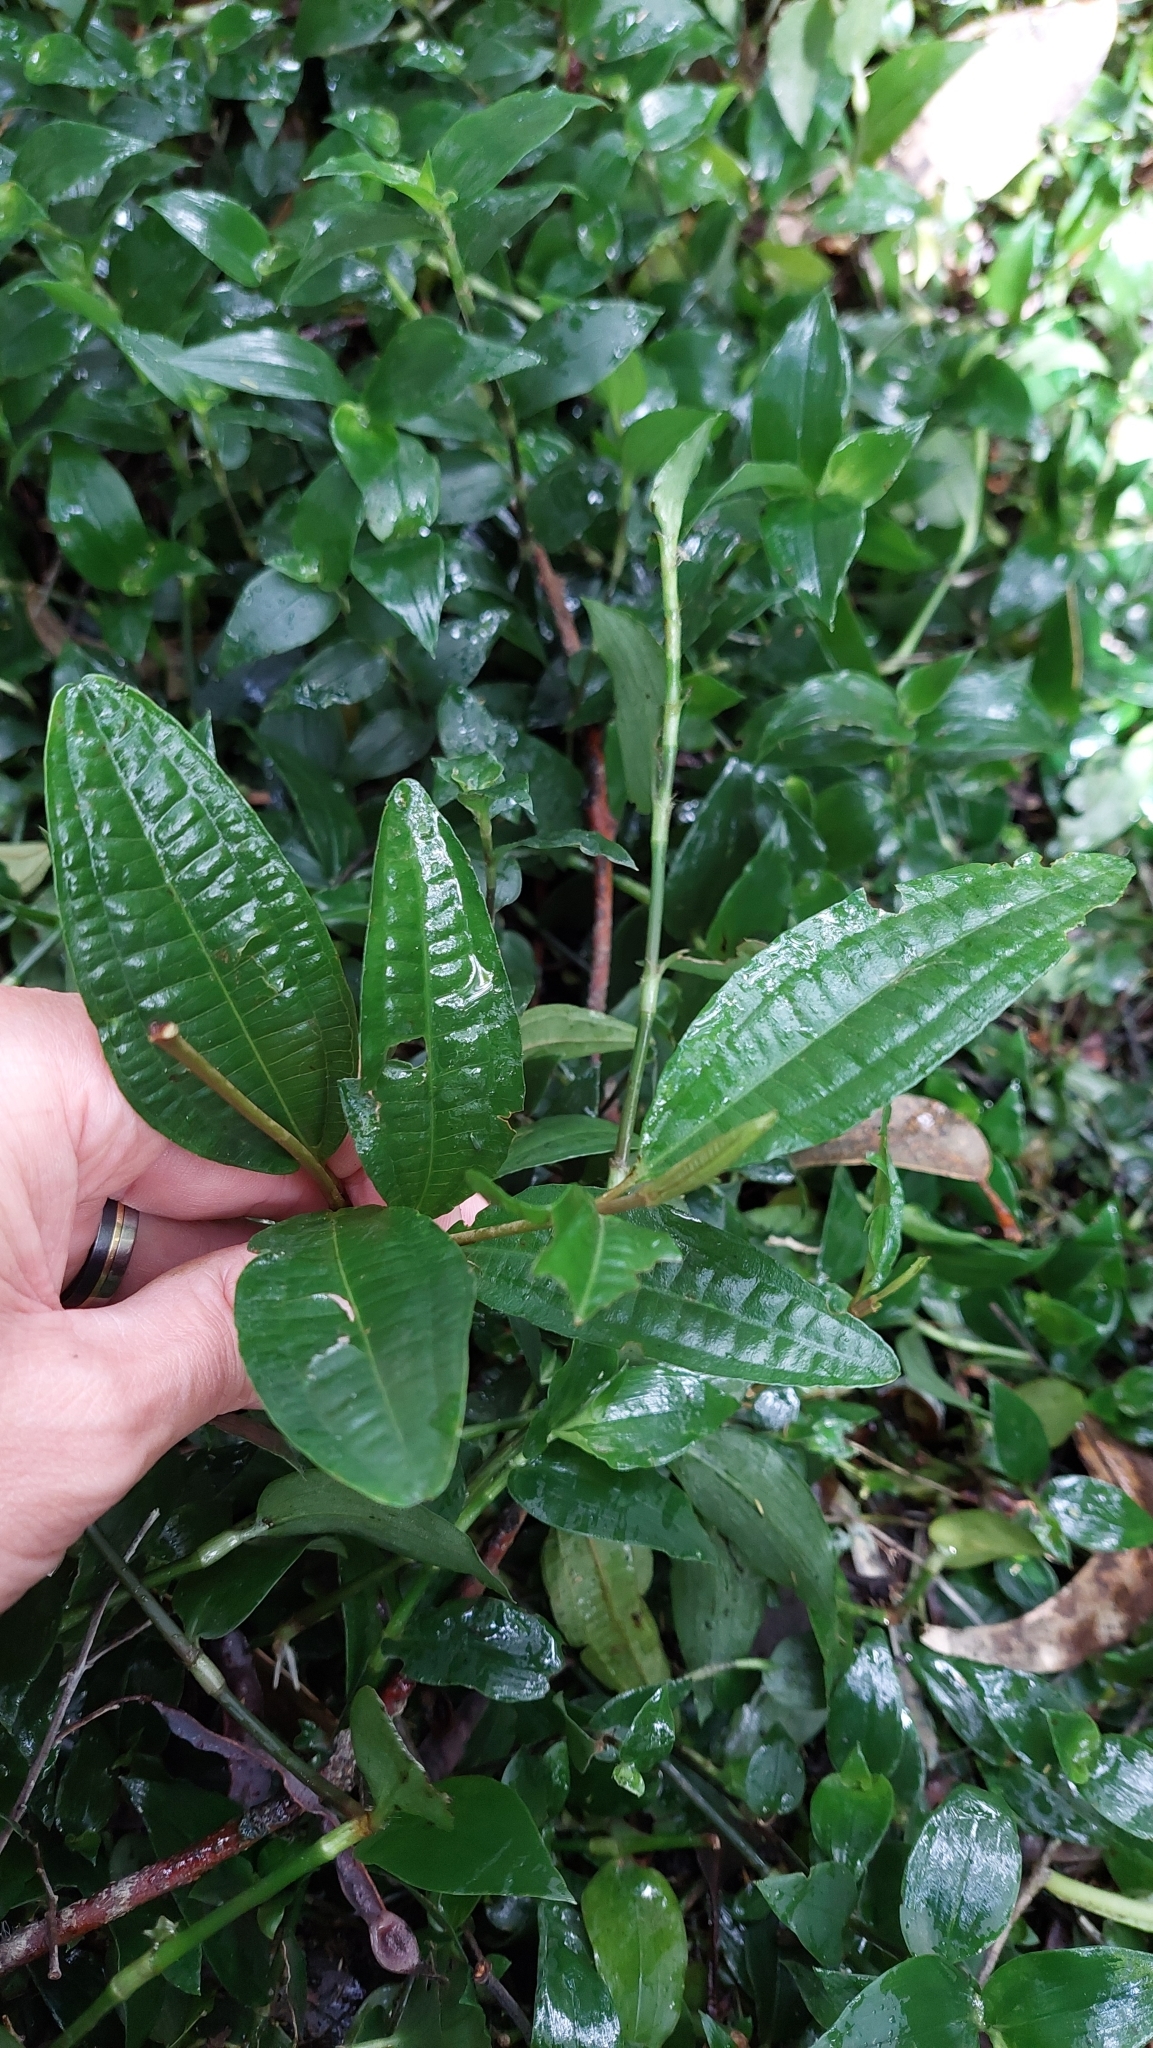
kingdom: Plantae
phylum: Tracheophyta
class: Magnoliopsida
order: Myrtales
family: Melastomataceae
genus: Miconia
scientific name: Miconia squamulosa
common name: Squamulose maya
